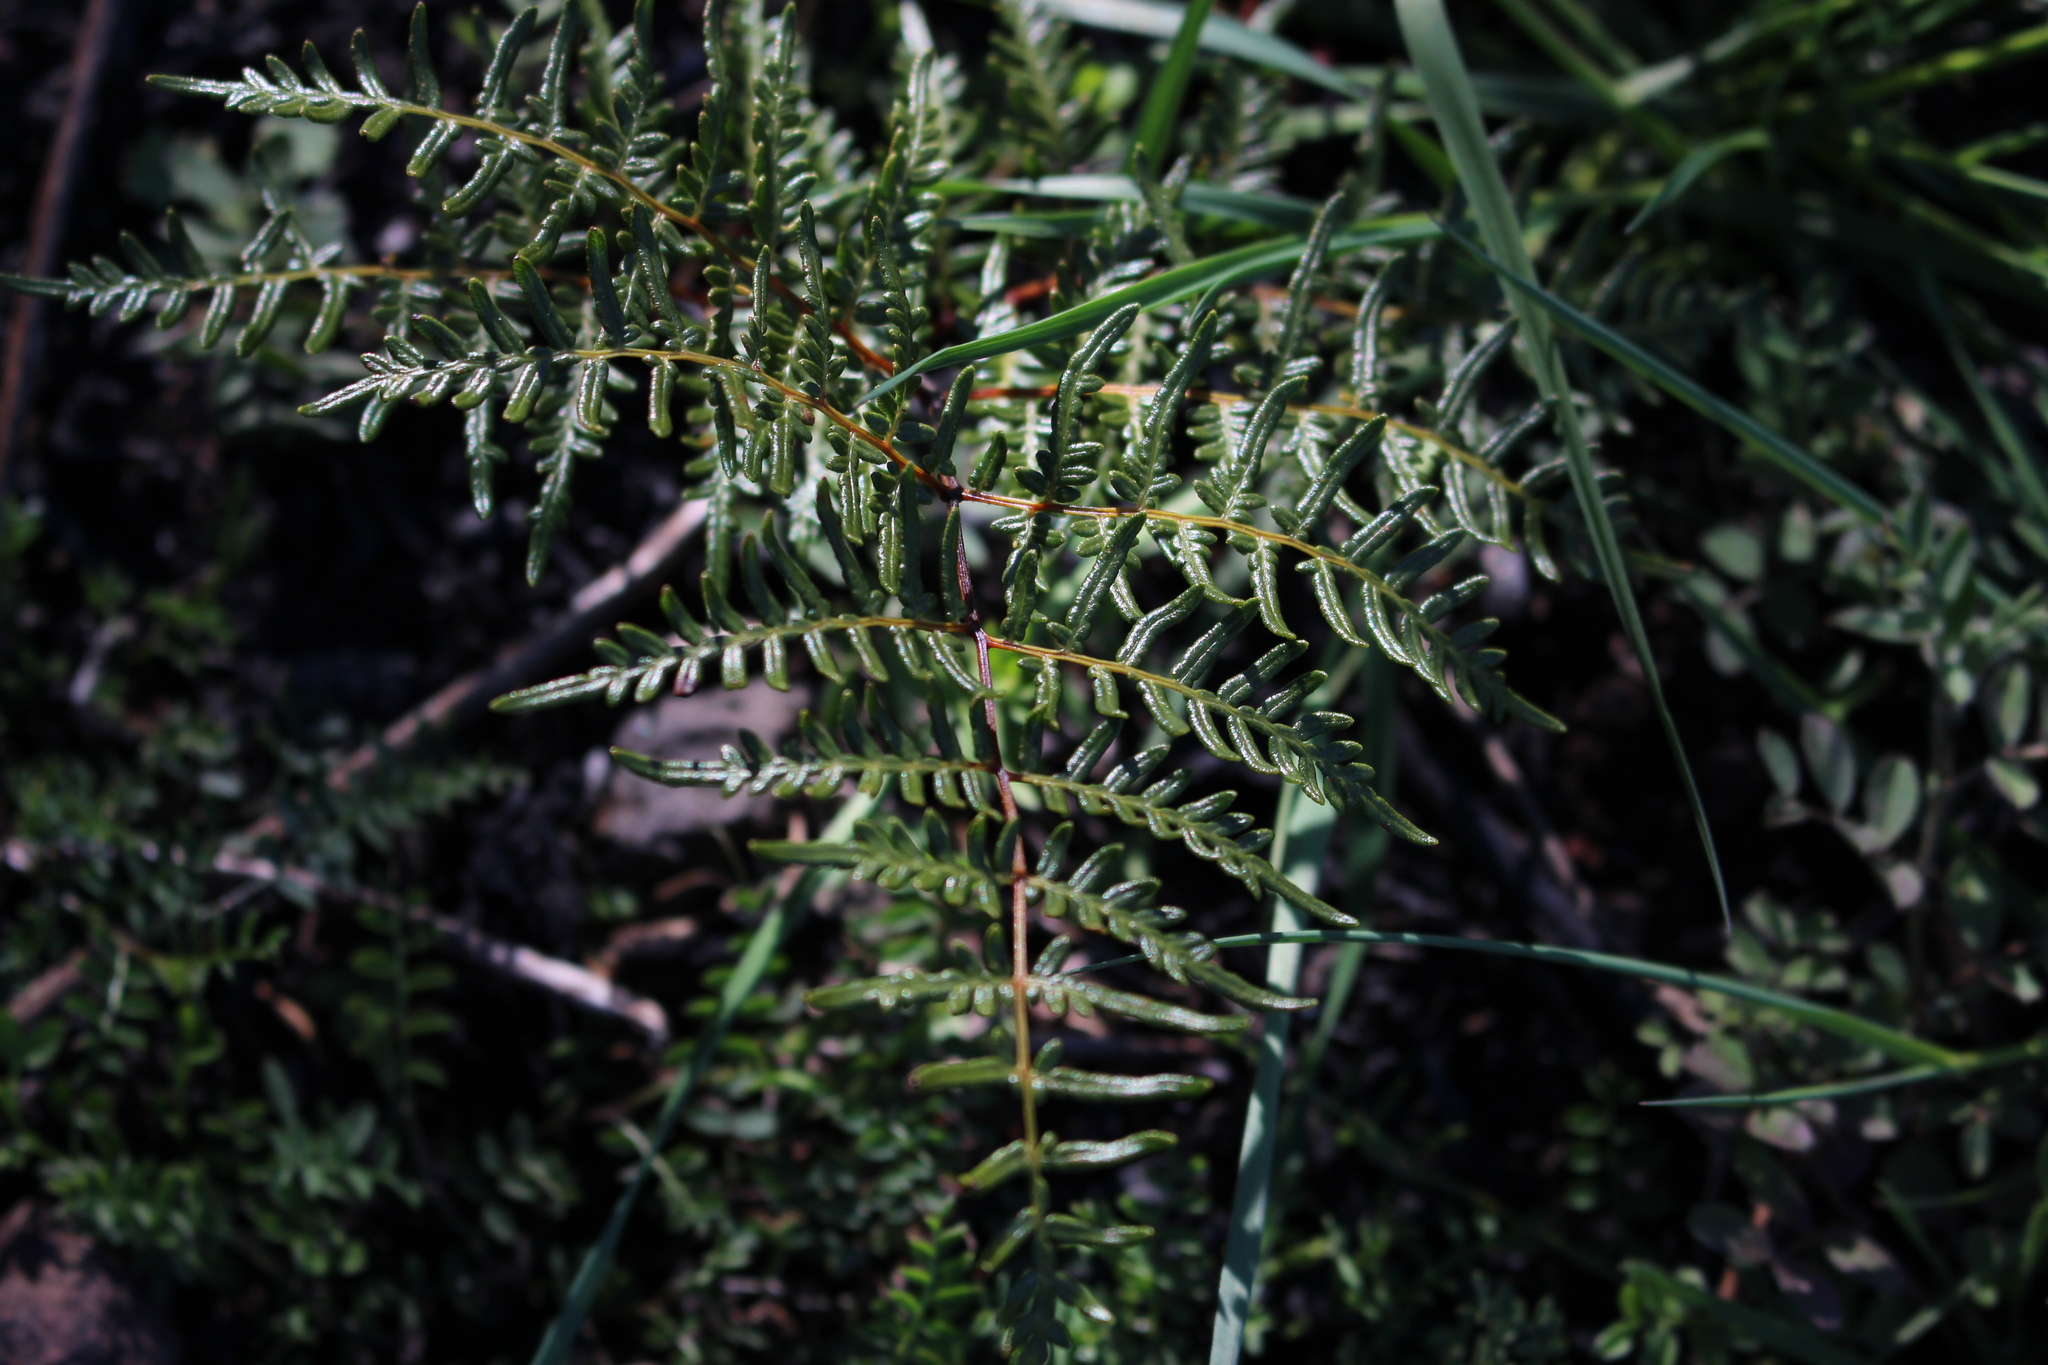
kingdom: Plantae
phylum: Tracheophyta
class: Polypodiopsida
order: Polypodiales
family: Dennstaedtiaceae
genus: Pteridium
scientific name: Pteridium esculentum
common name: Bracken fern
